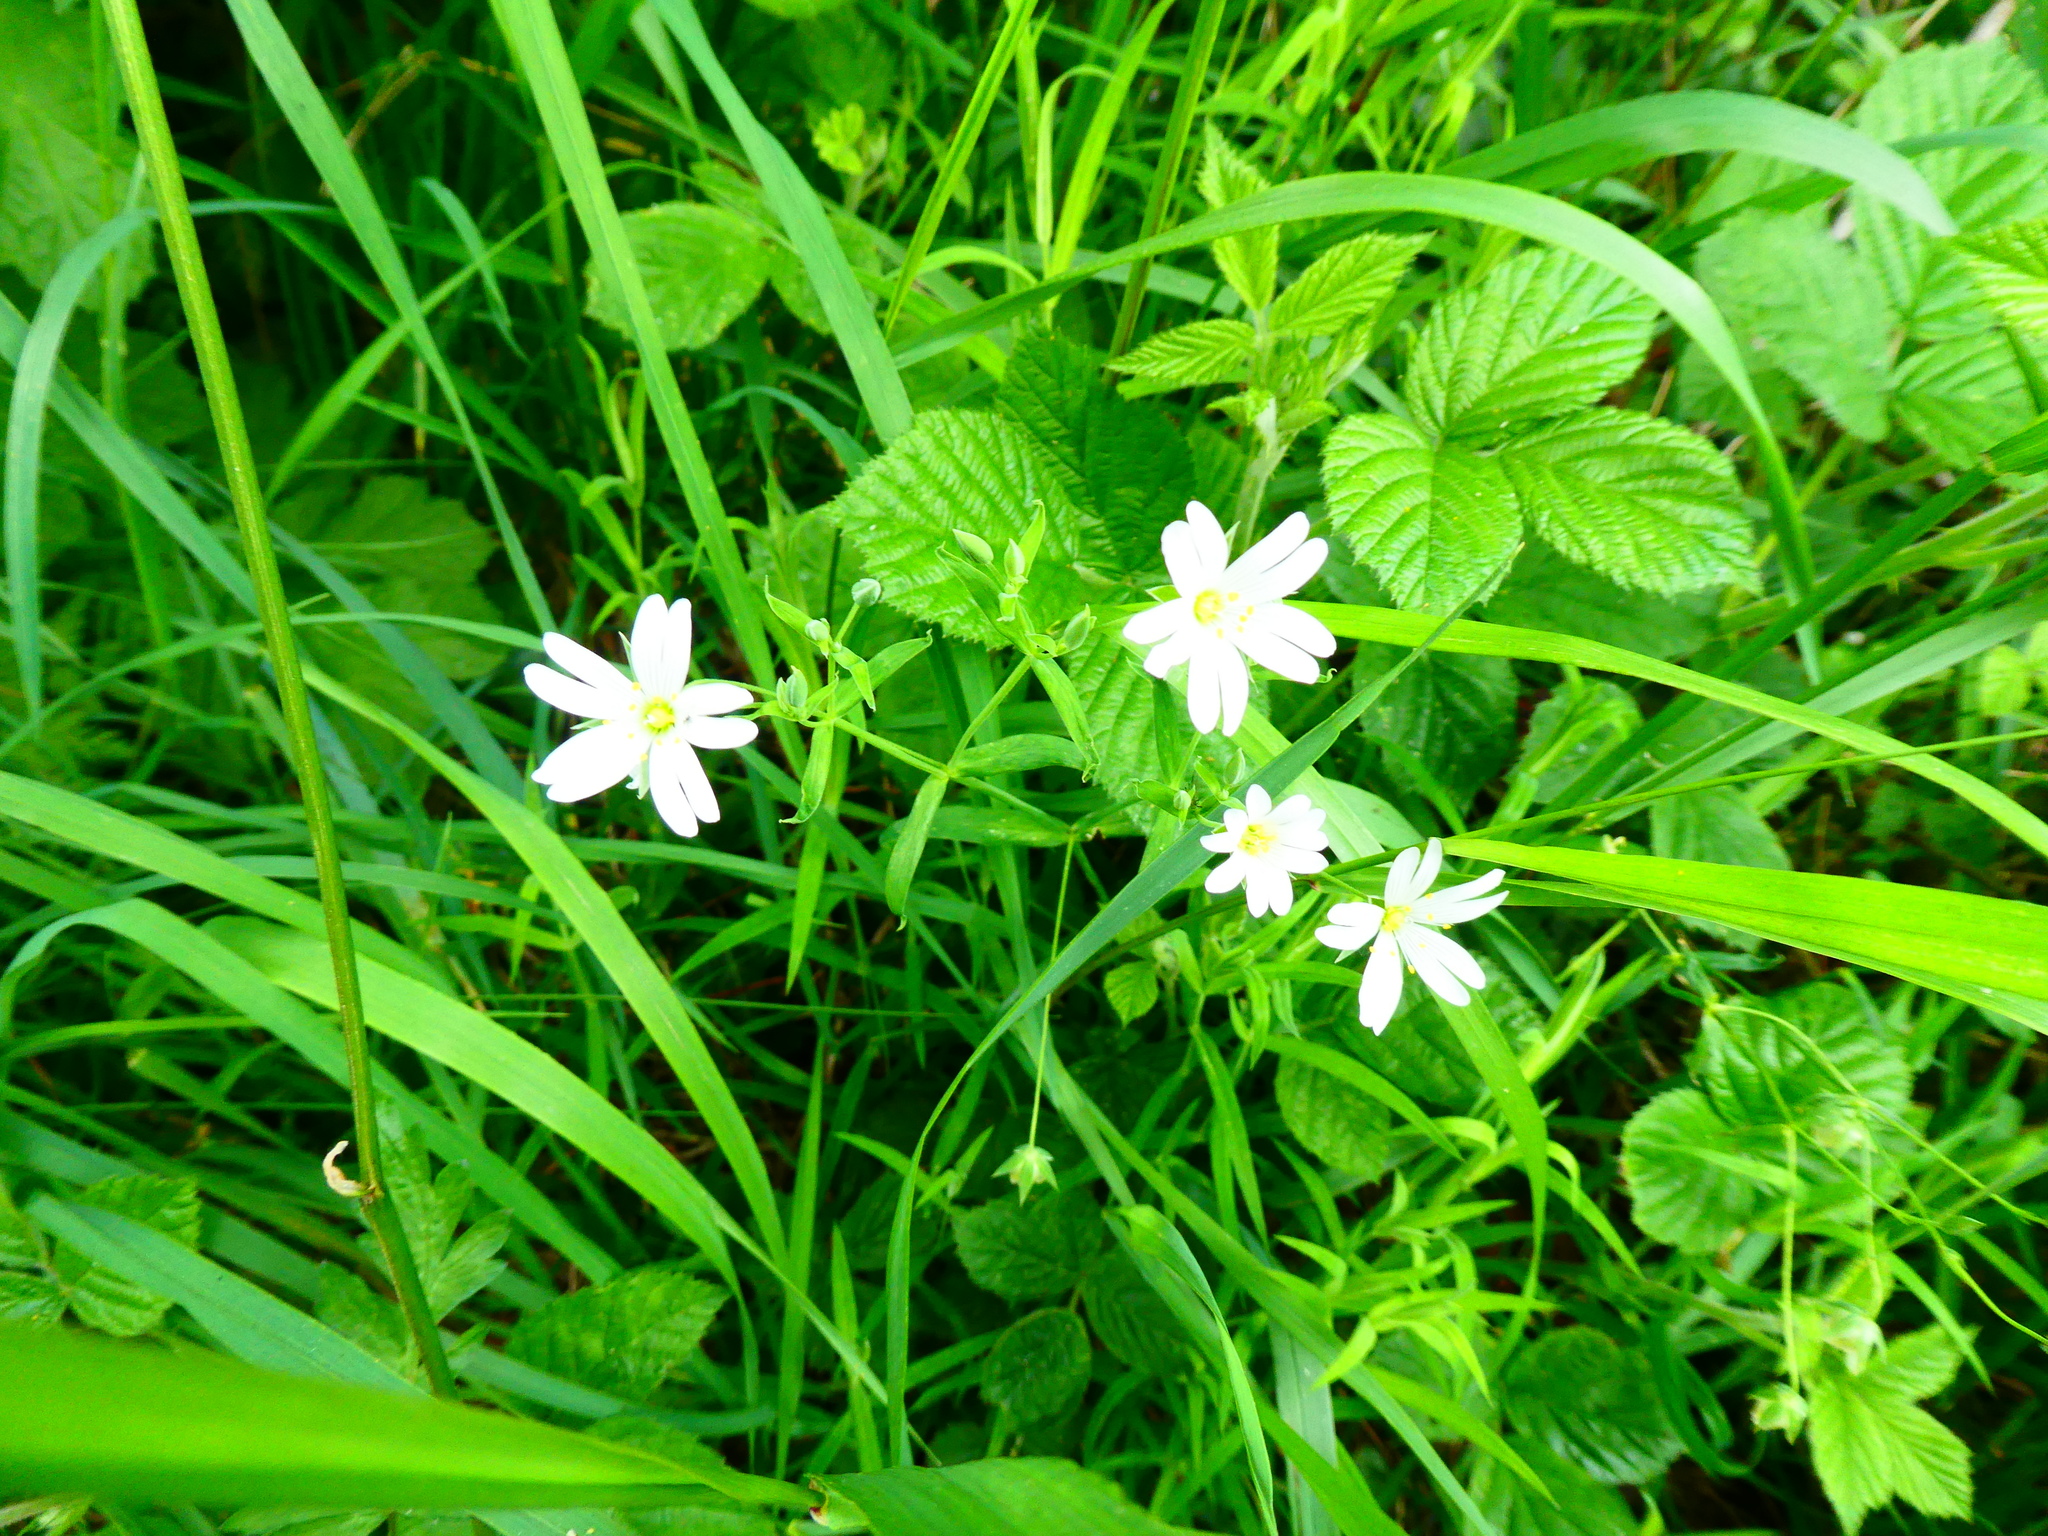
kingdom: Plantae
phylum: Tracheophyta
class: Magnoliopsida
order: Caryophyllales
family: Caryophyllaceae
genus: Rabelera
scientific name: Rabelera holostea
